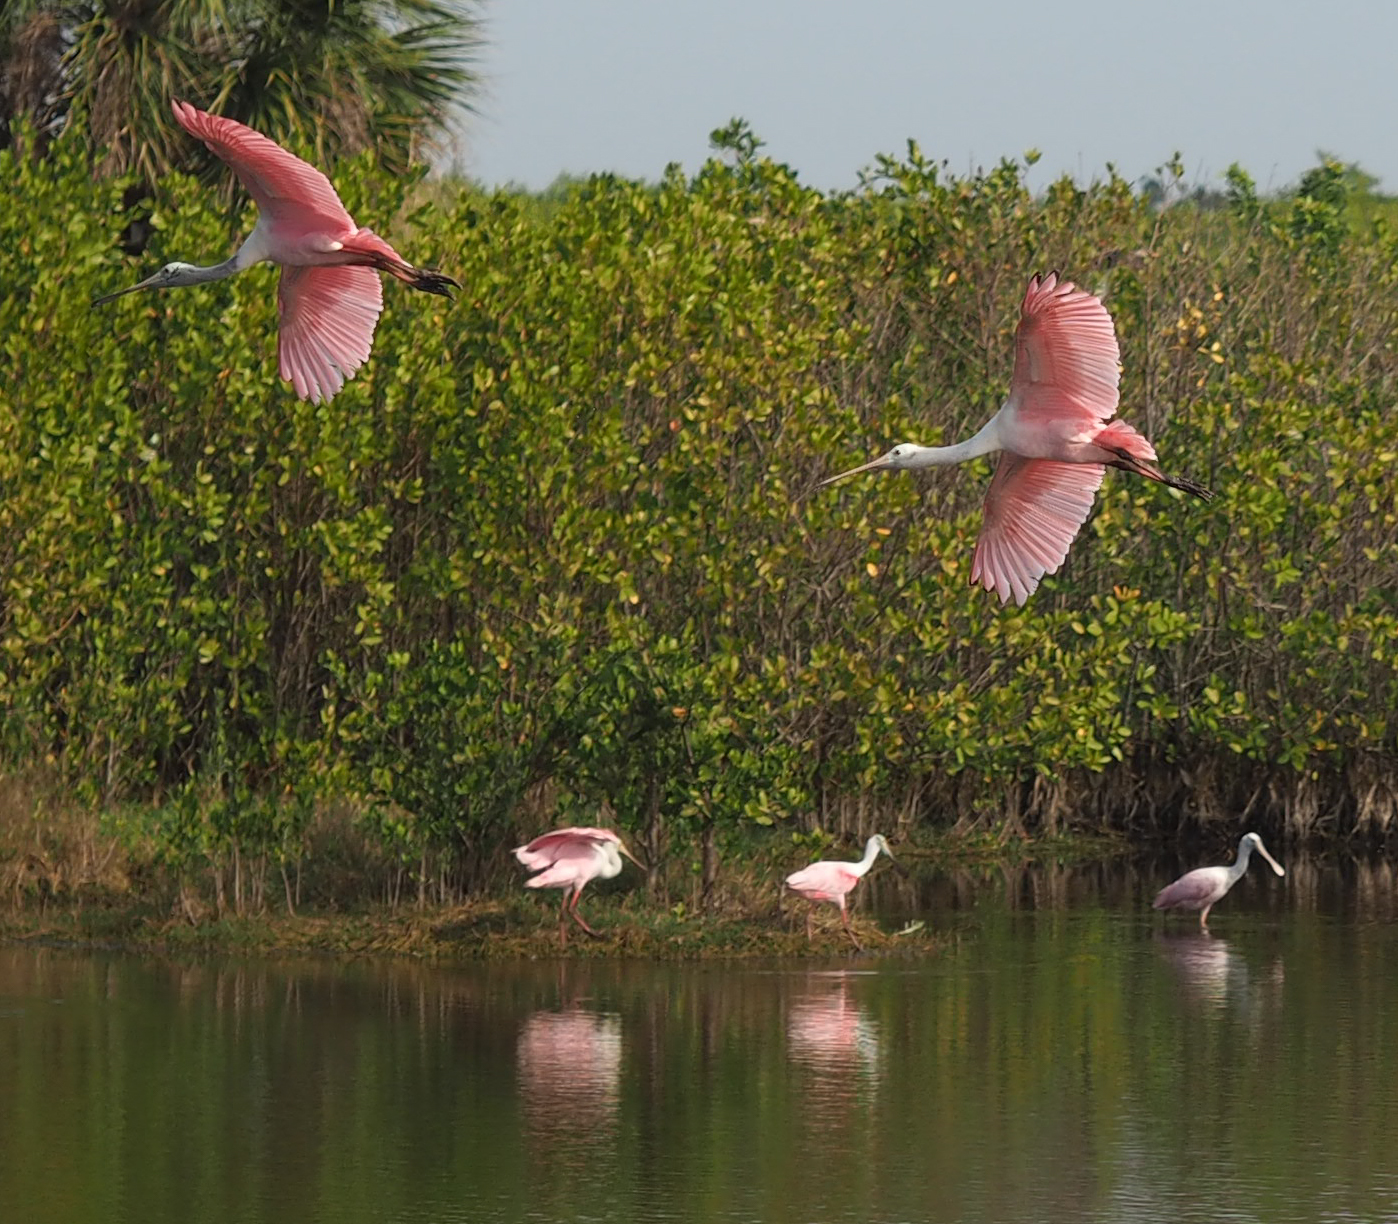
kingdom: Animalia
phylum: Chordata
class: Aves
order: Pelecaniformes
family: Threskiornithidae
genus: Platalea
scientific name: Platalea ajaja
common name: Roseate spoonbill
